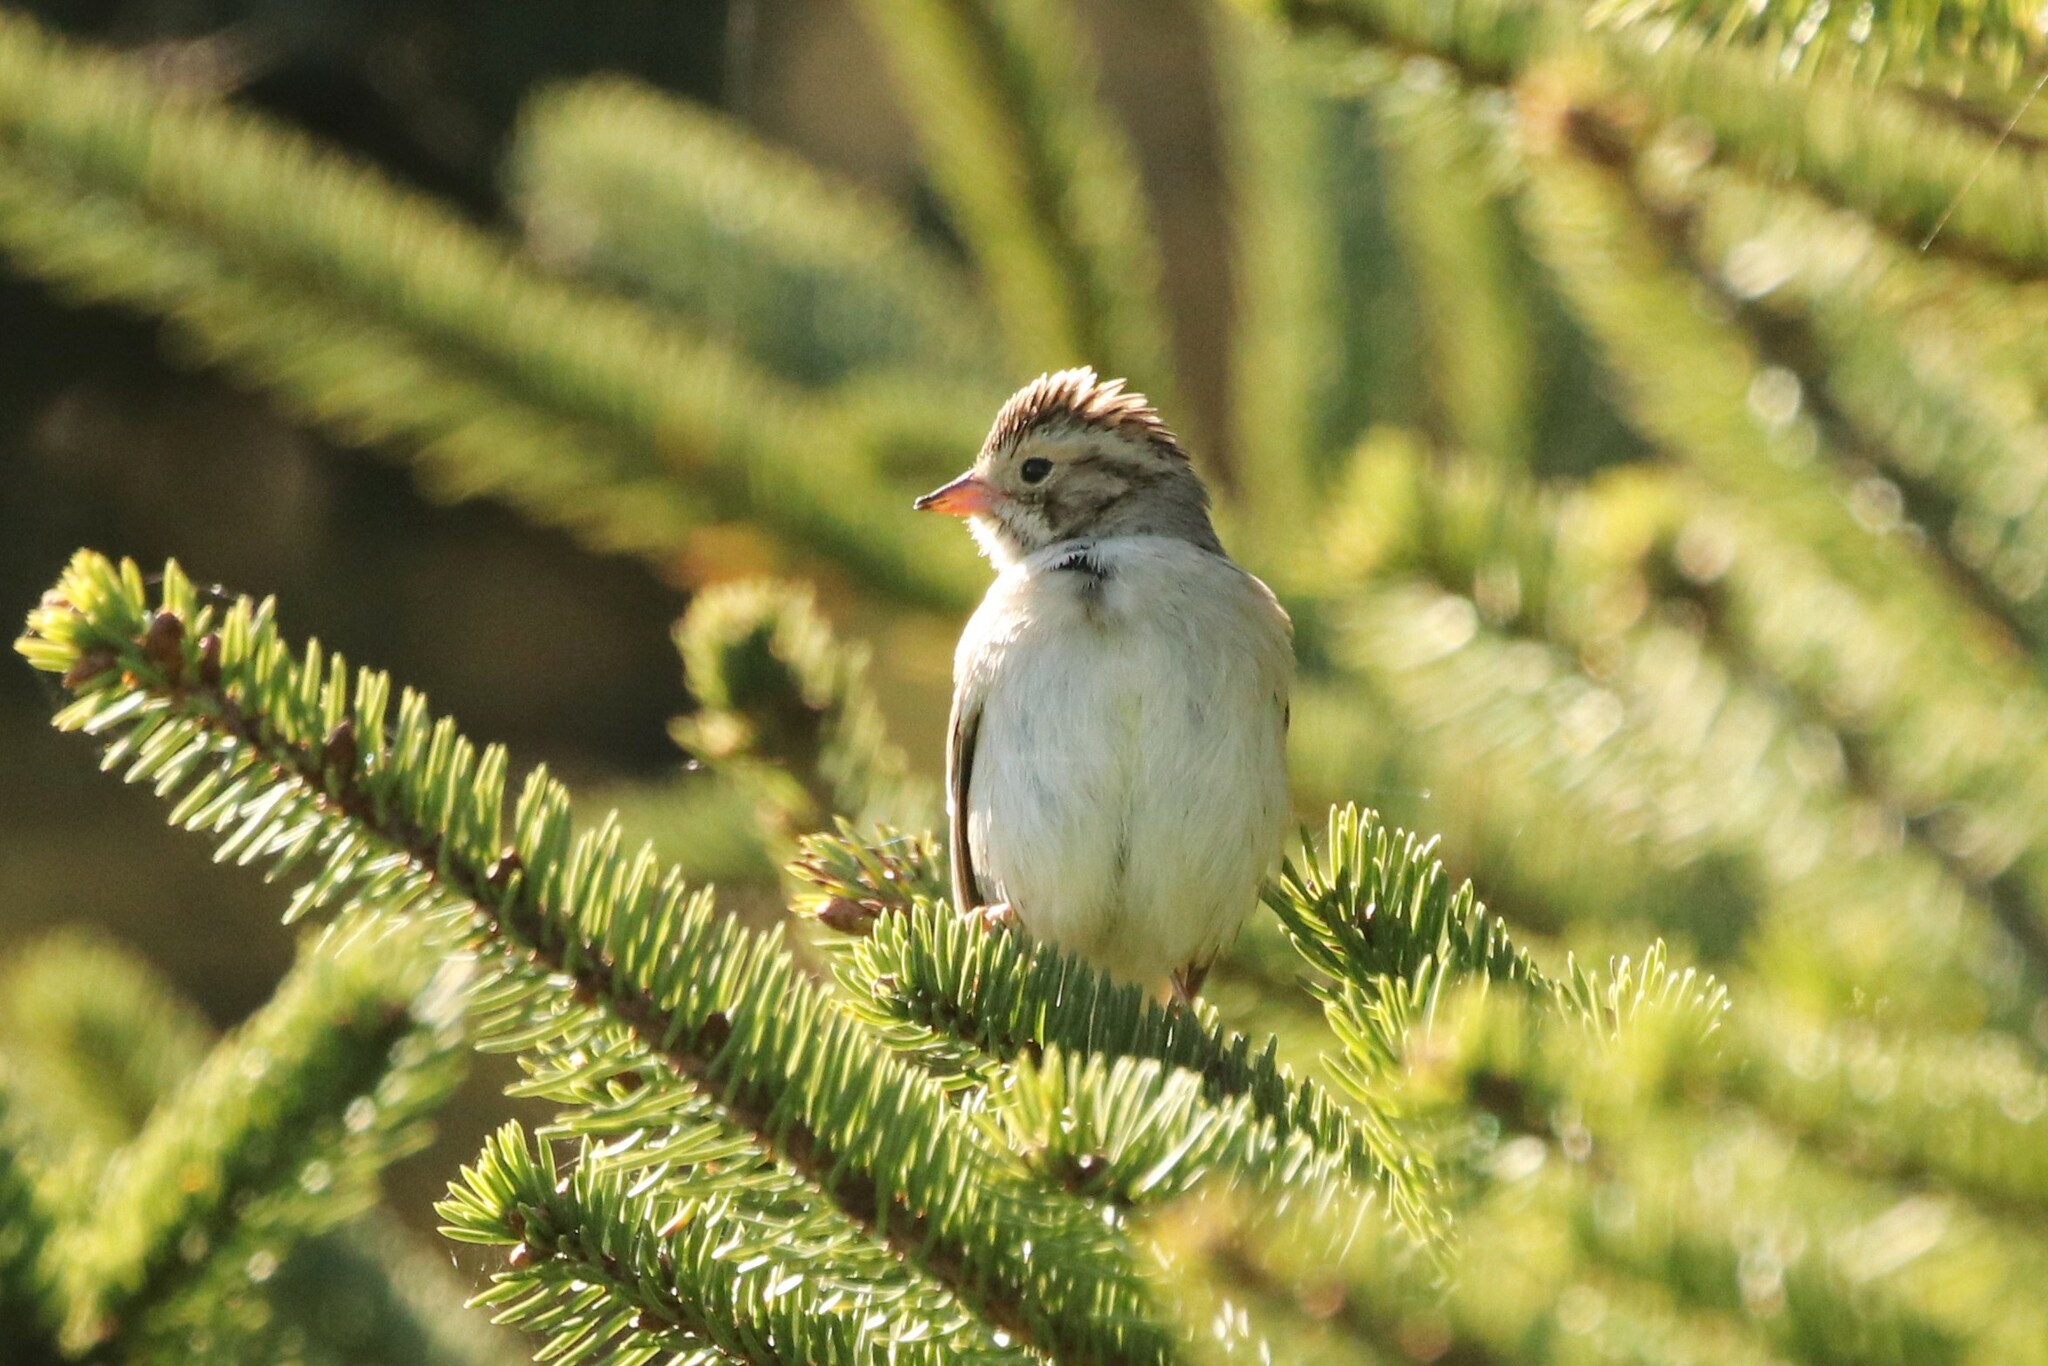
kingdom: Animalia
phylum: Chordata
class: Aves
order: Passeriformes
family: Passerellidae
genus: Spizella
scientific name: Spizella pallida
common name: Clay-colored sparrow
